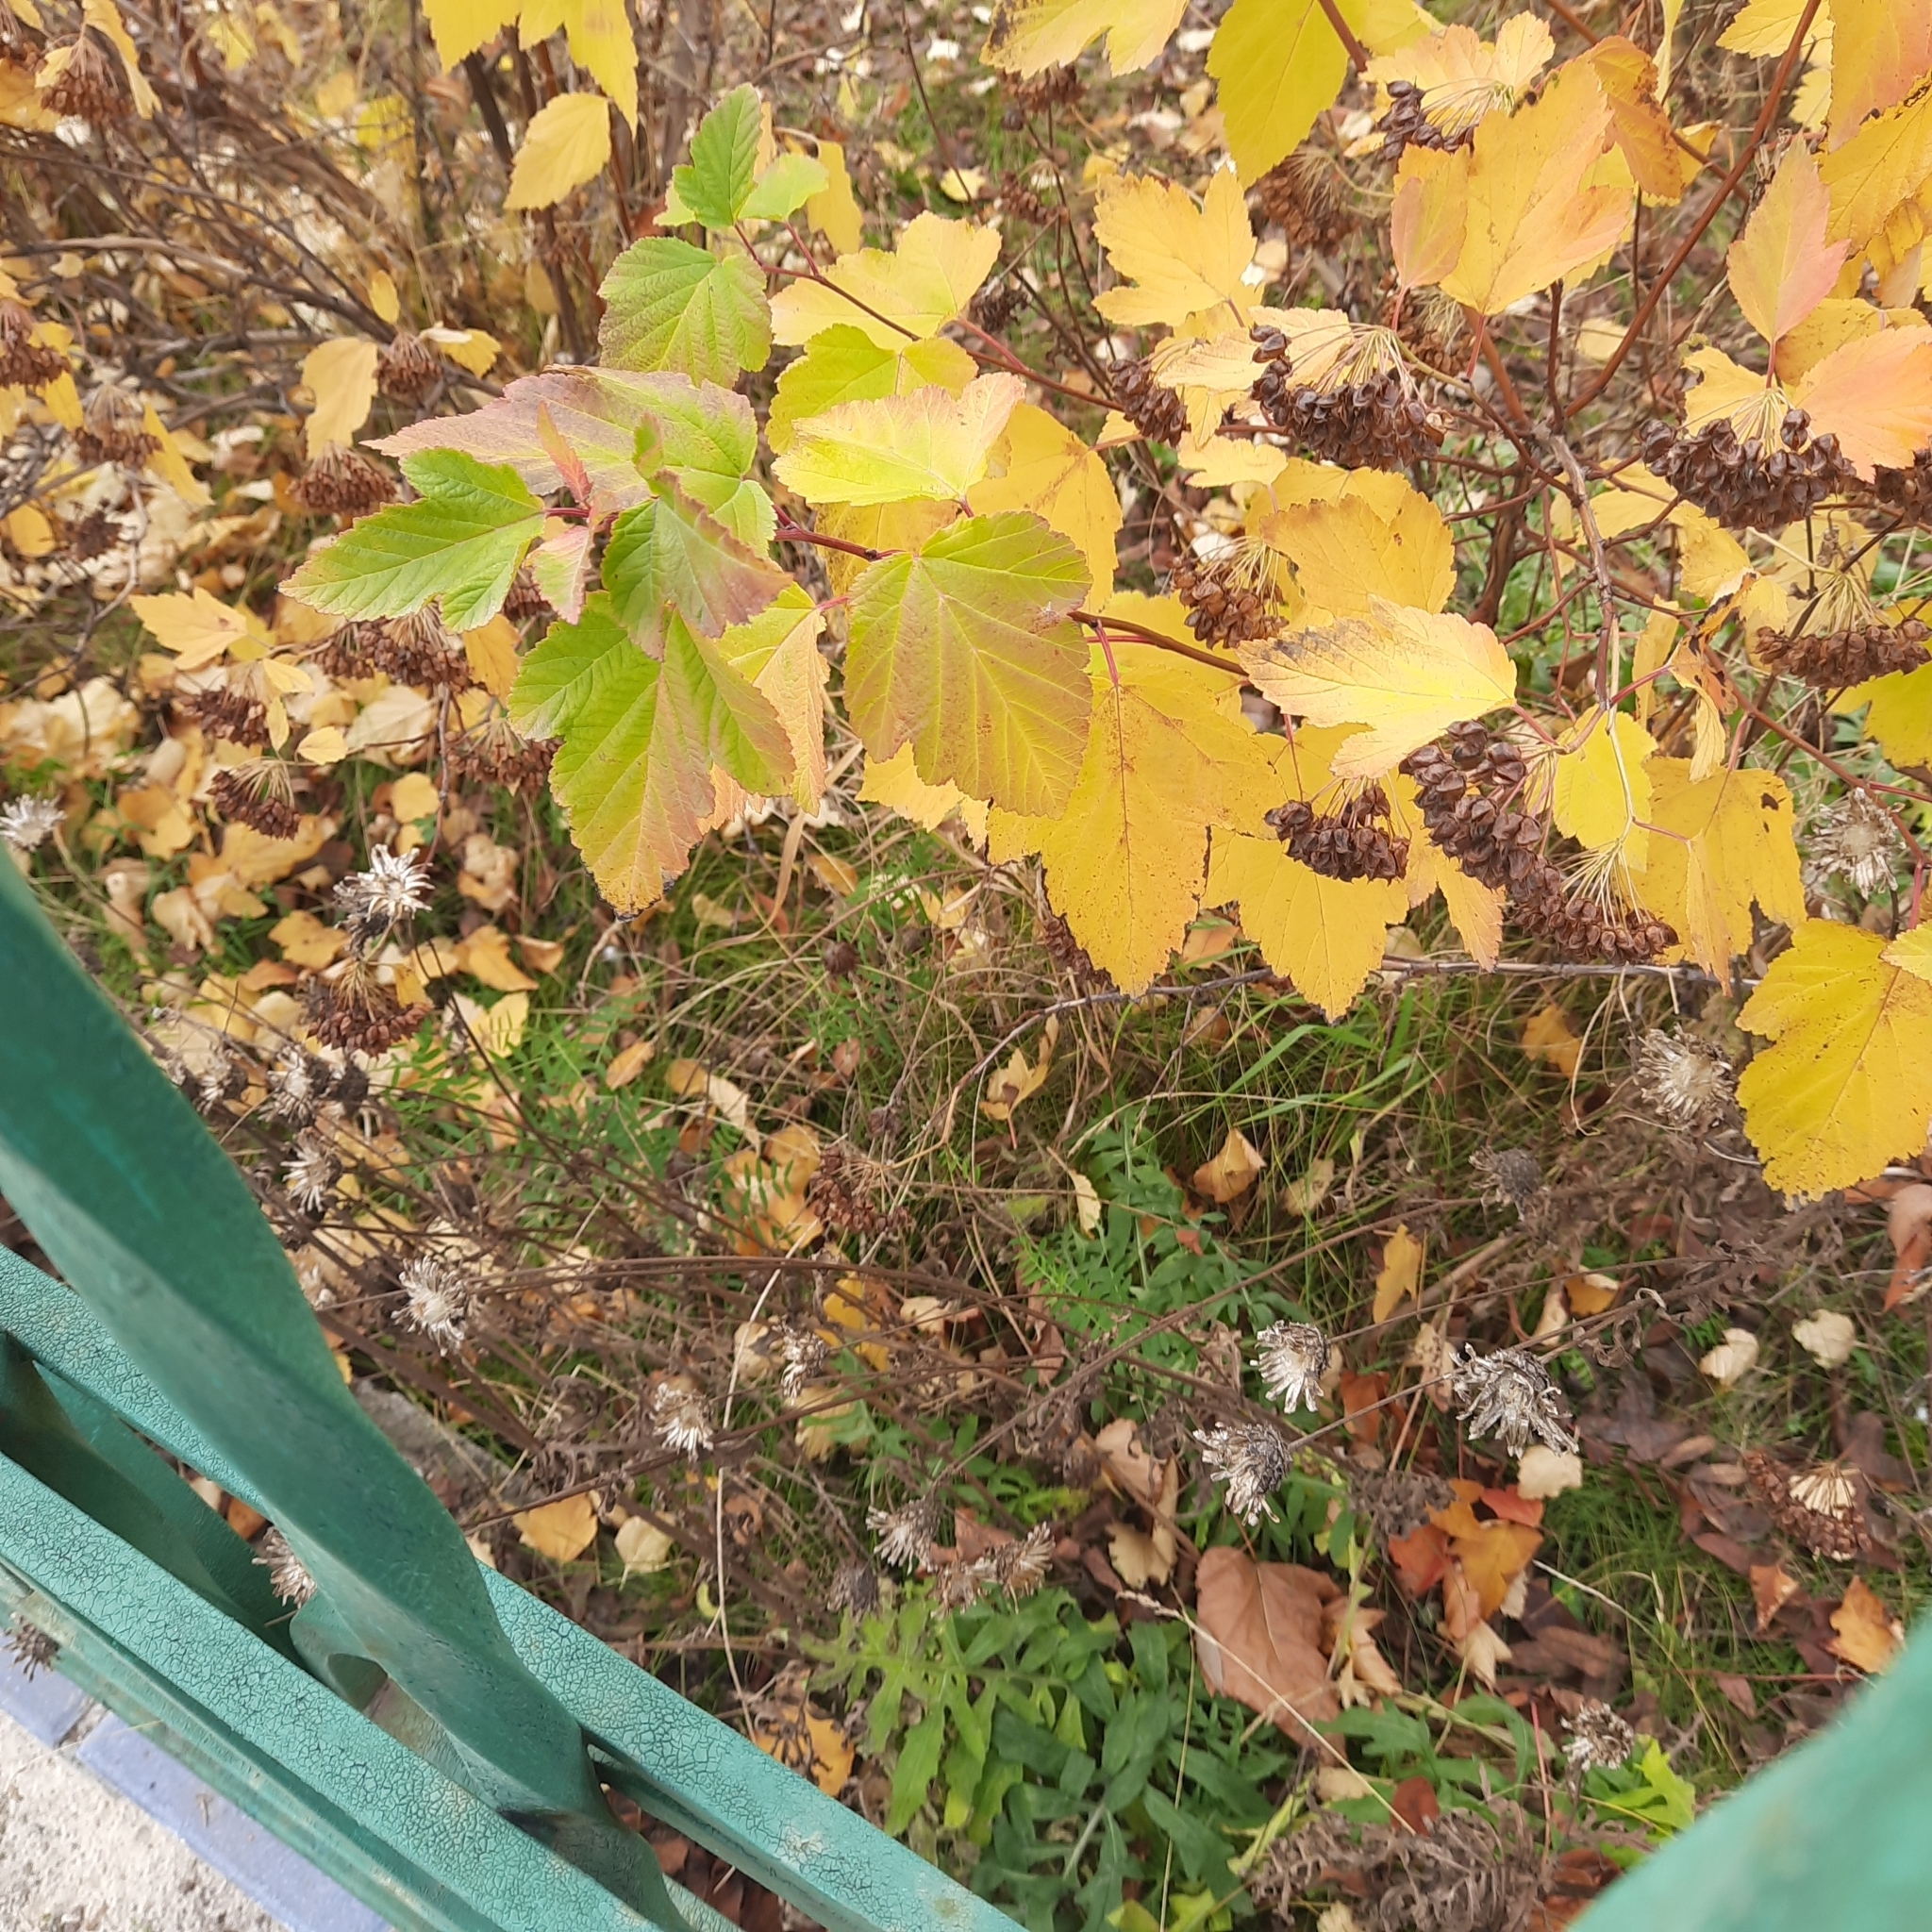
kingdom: Plantae
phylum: Tracheophyta
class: Magnoliopsida
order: Asterales
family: Asteraceae
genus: Centaurea
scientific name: Centaurea scabiosa
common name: Greater knapweed
